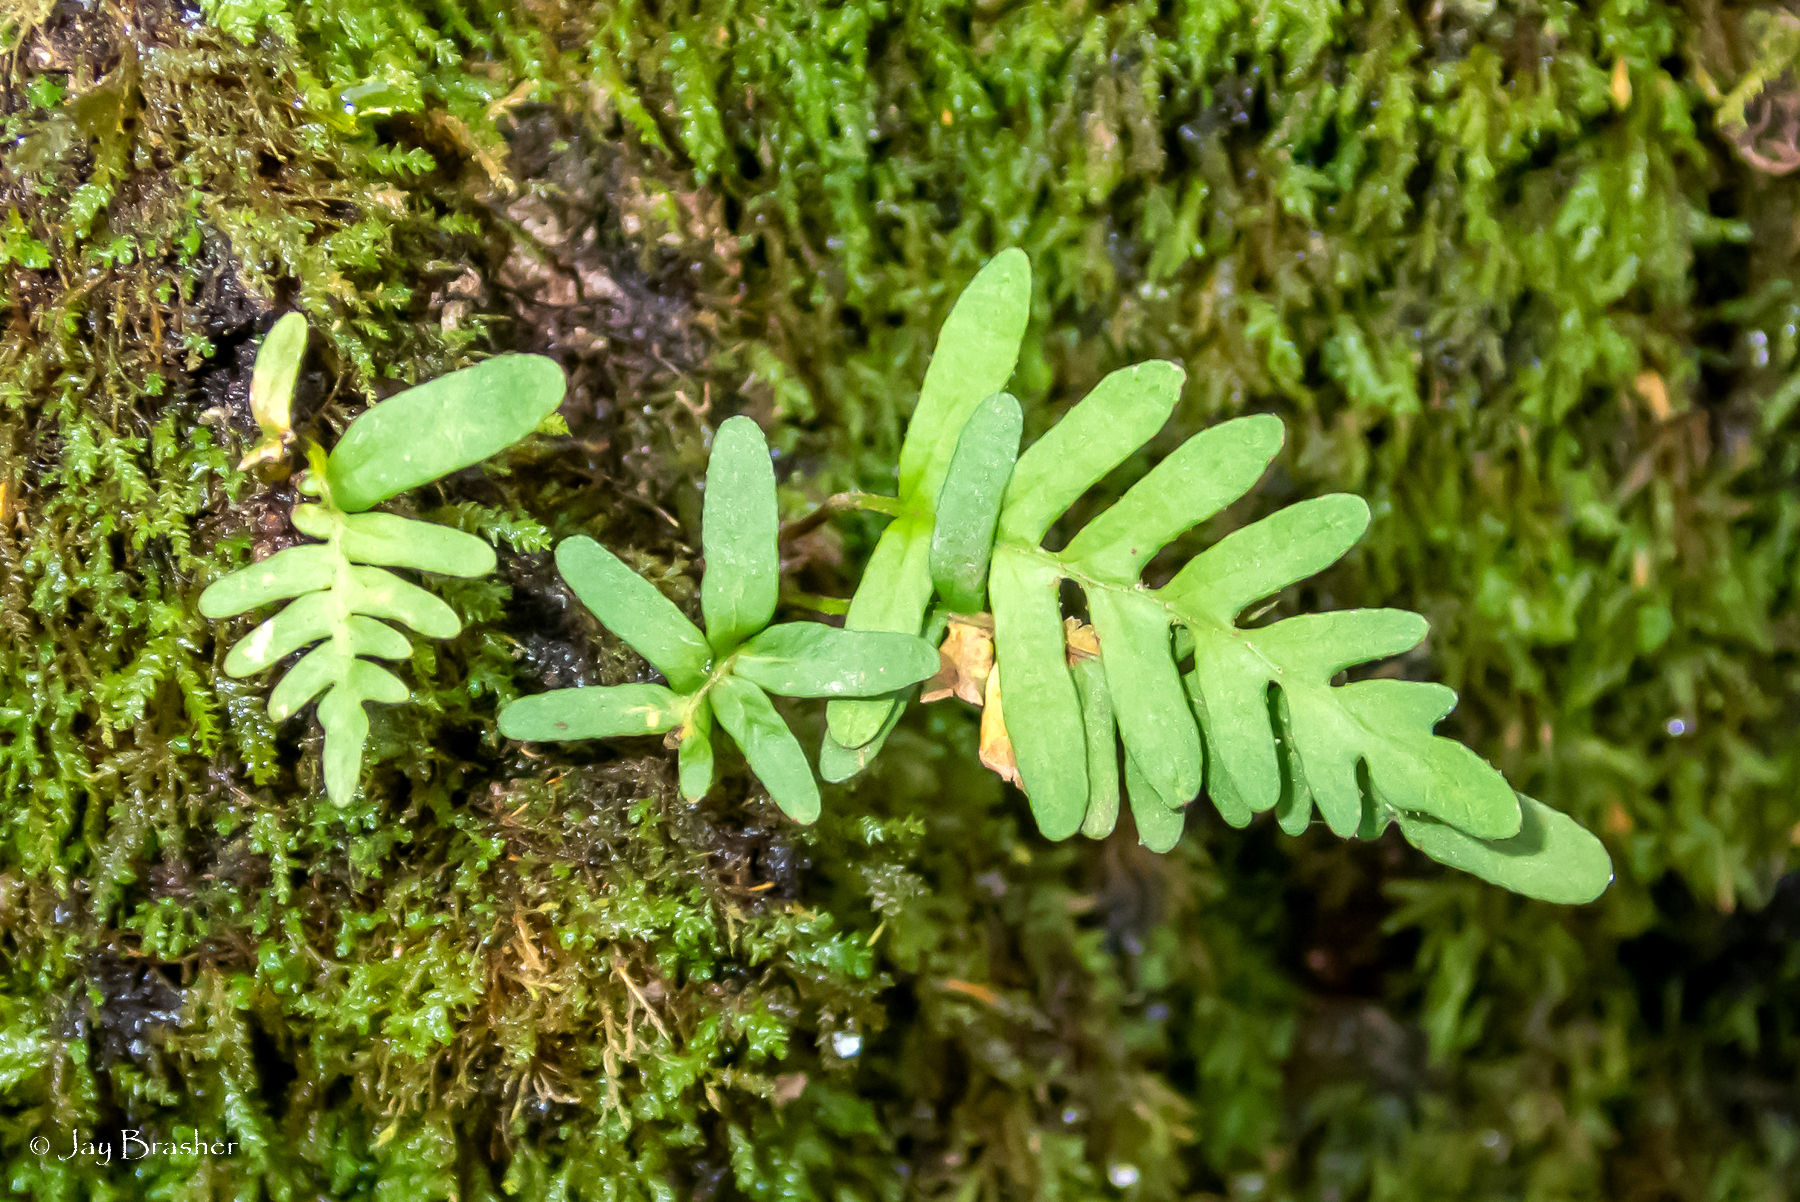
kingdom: Plantae
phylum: Tracheophyta
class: Polypodiopsida
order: Polypodiales
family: Polypodiaceae
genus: Pleopeltis
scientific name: Pleopeltis michauxiana
